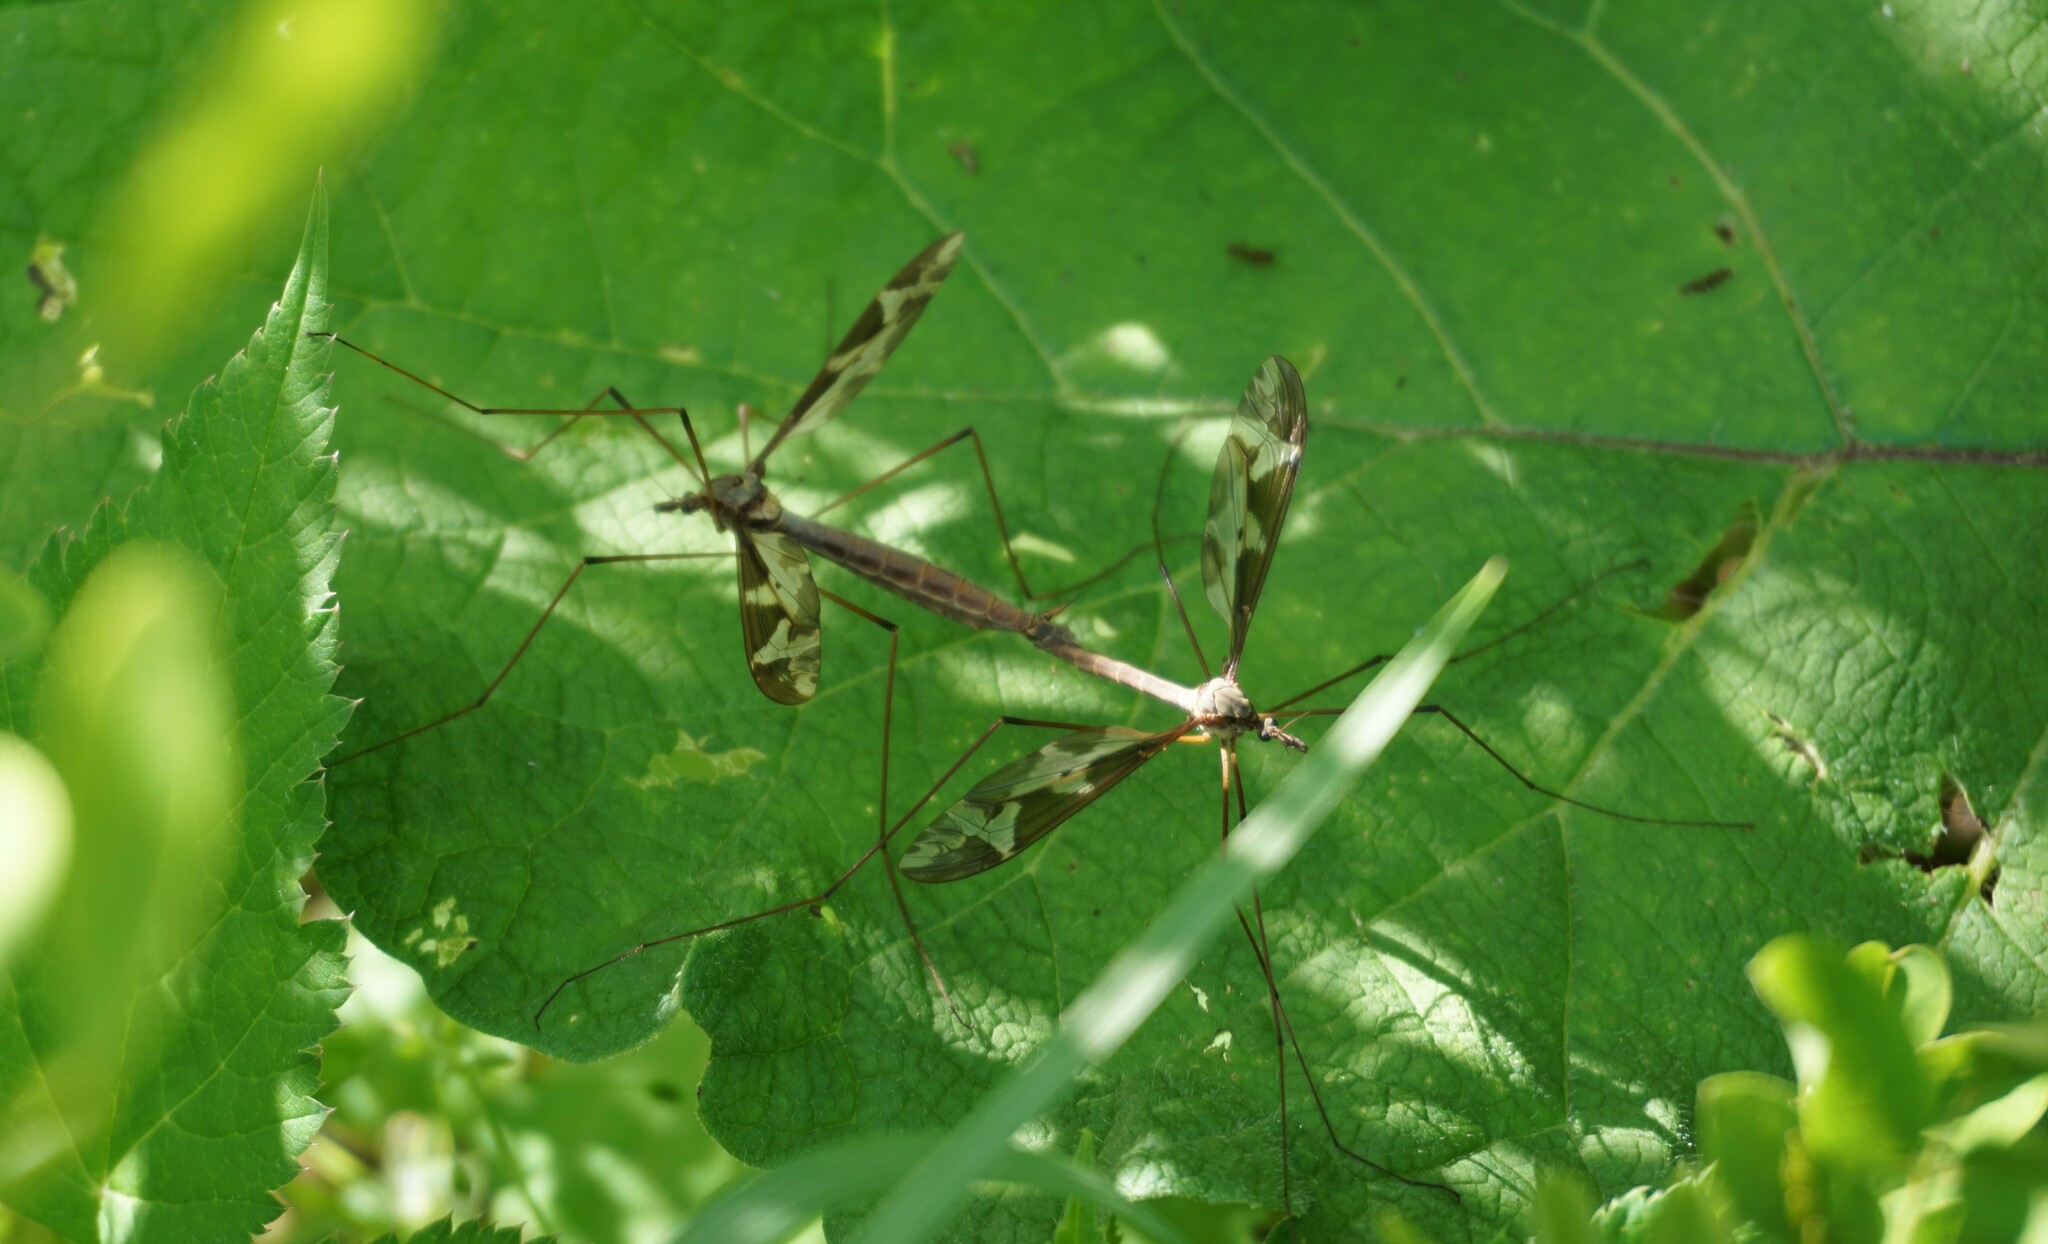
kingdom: Animalia
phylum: Arthropoda
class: Insecta
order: Diptera
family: Tipulidae
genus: Tipula
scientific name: Tipula maxima
